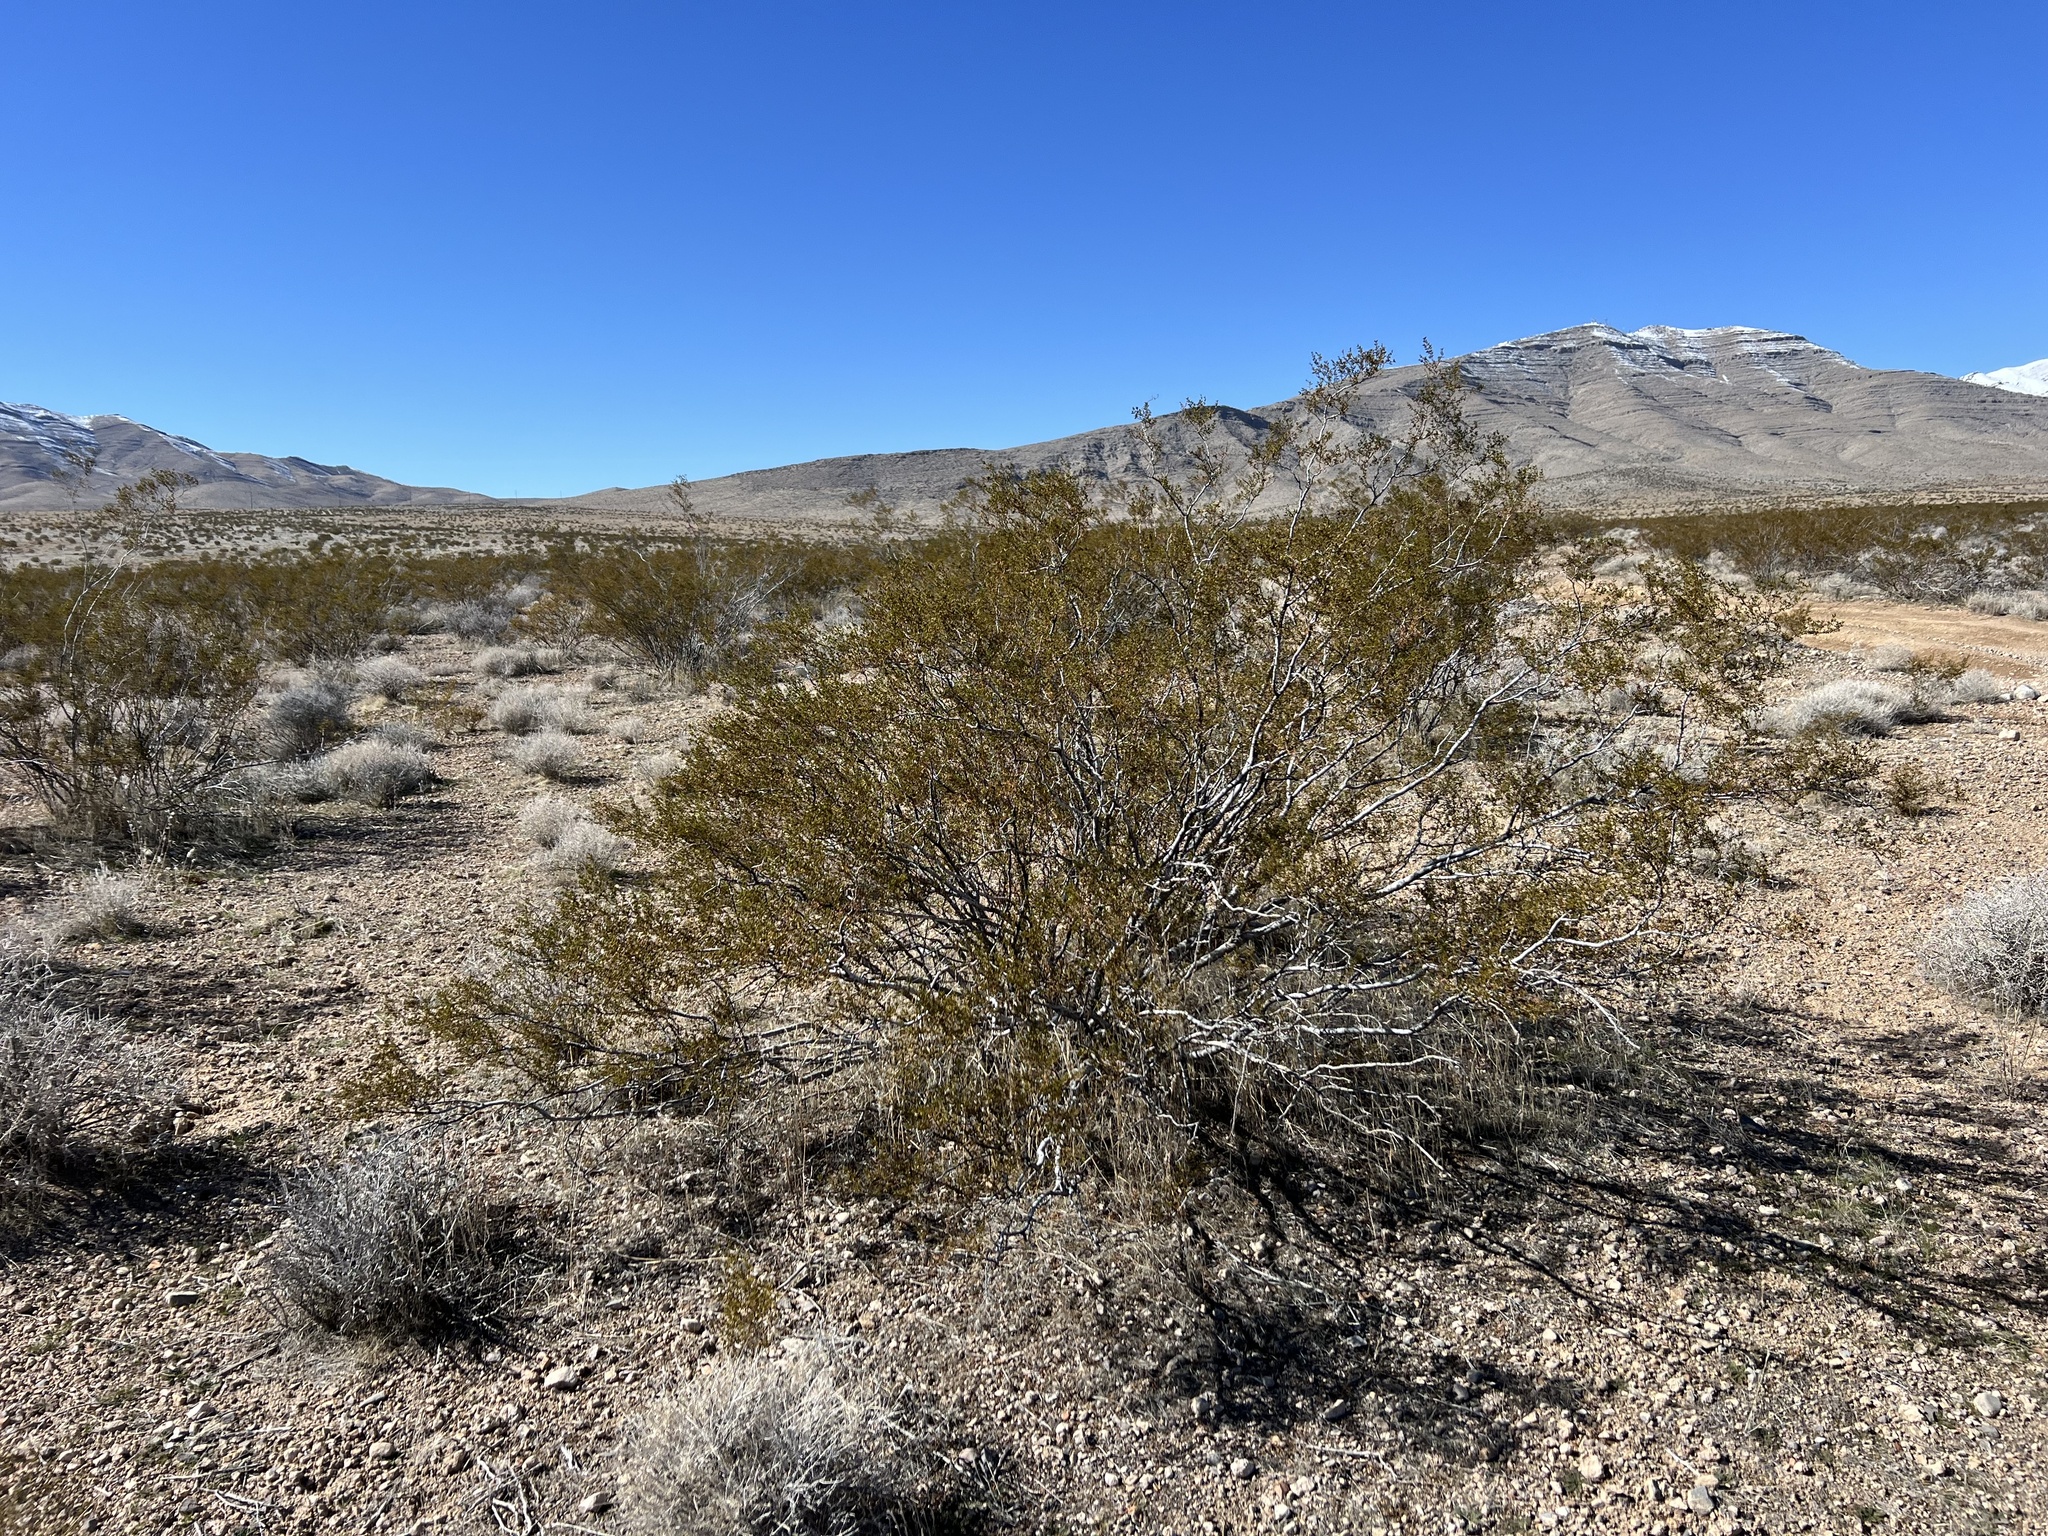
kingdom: Plantae
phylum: Tracheophyta
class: Magnoliopsida
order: Zygophyllales
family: Zygophyllaceae
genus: Larrea
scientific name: Larrea tridentata
